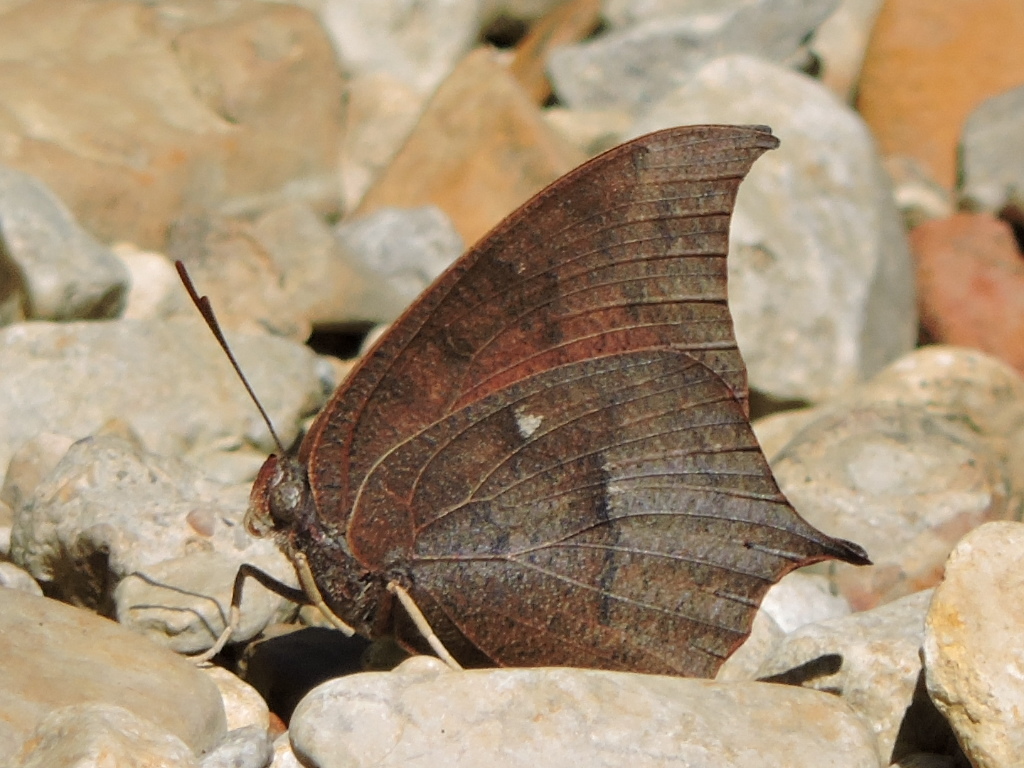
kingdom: Animalia
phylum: Arthropoda
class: Insecta
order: Lepidoptera
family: Nymphalidae
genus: Anaea
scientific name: Anaea andria
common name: Goatweed leafwing
